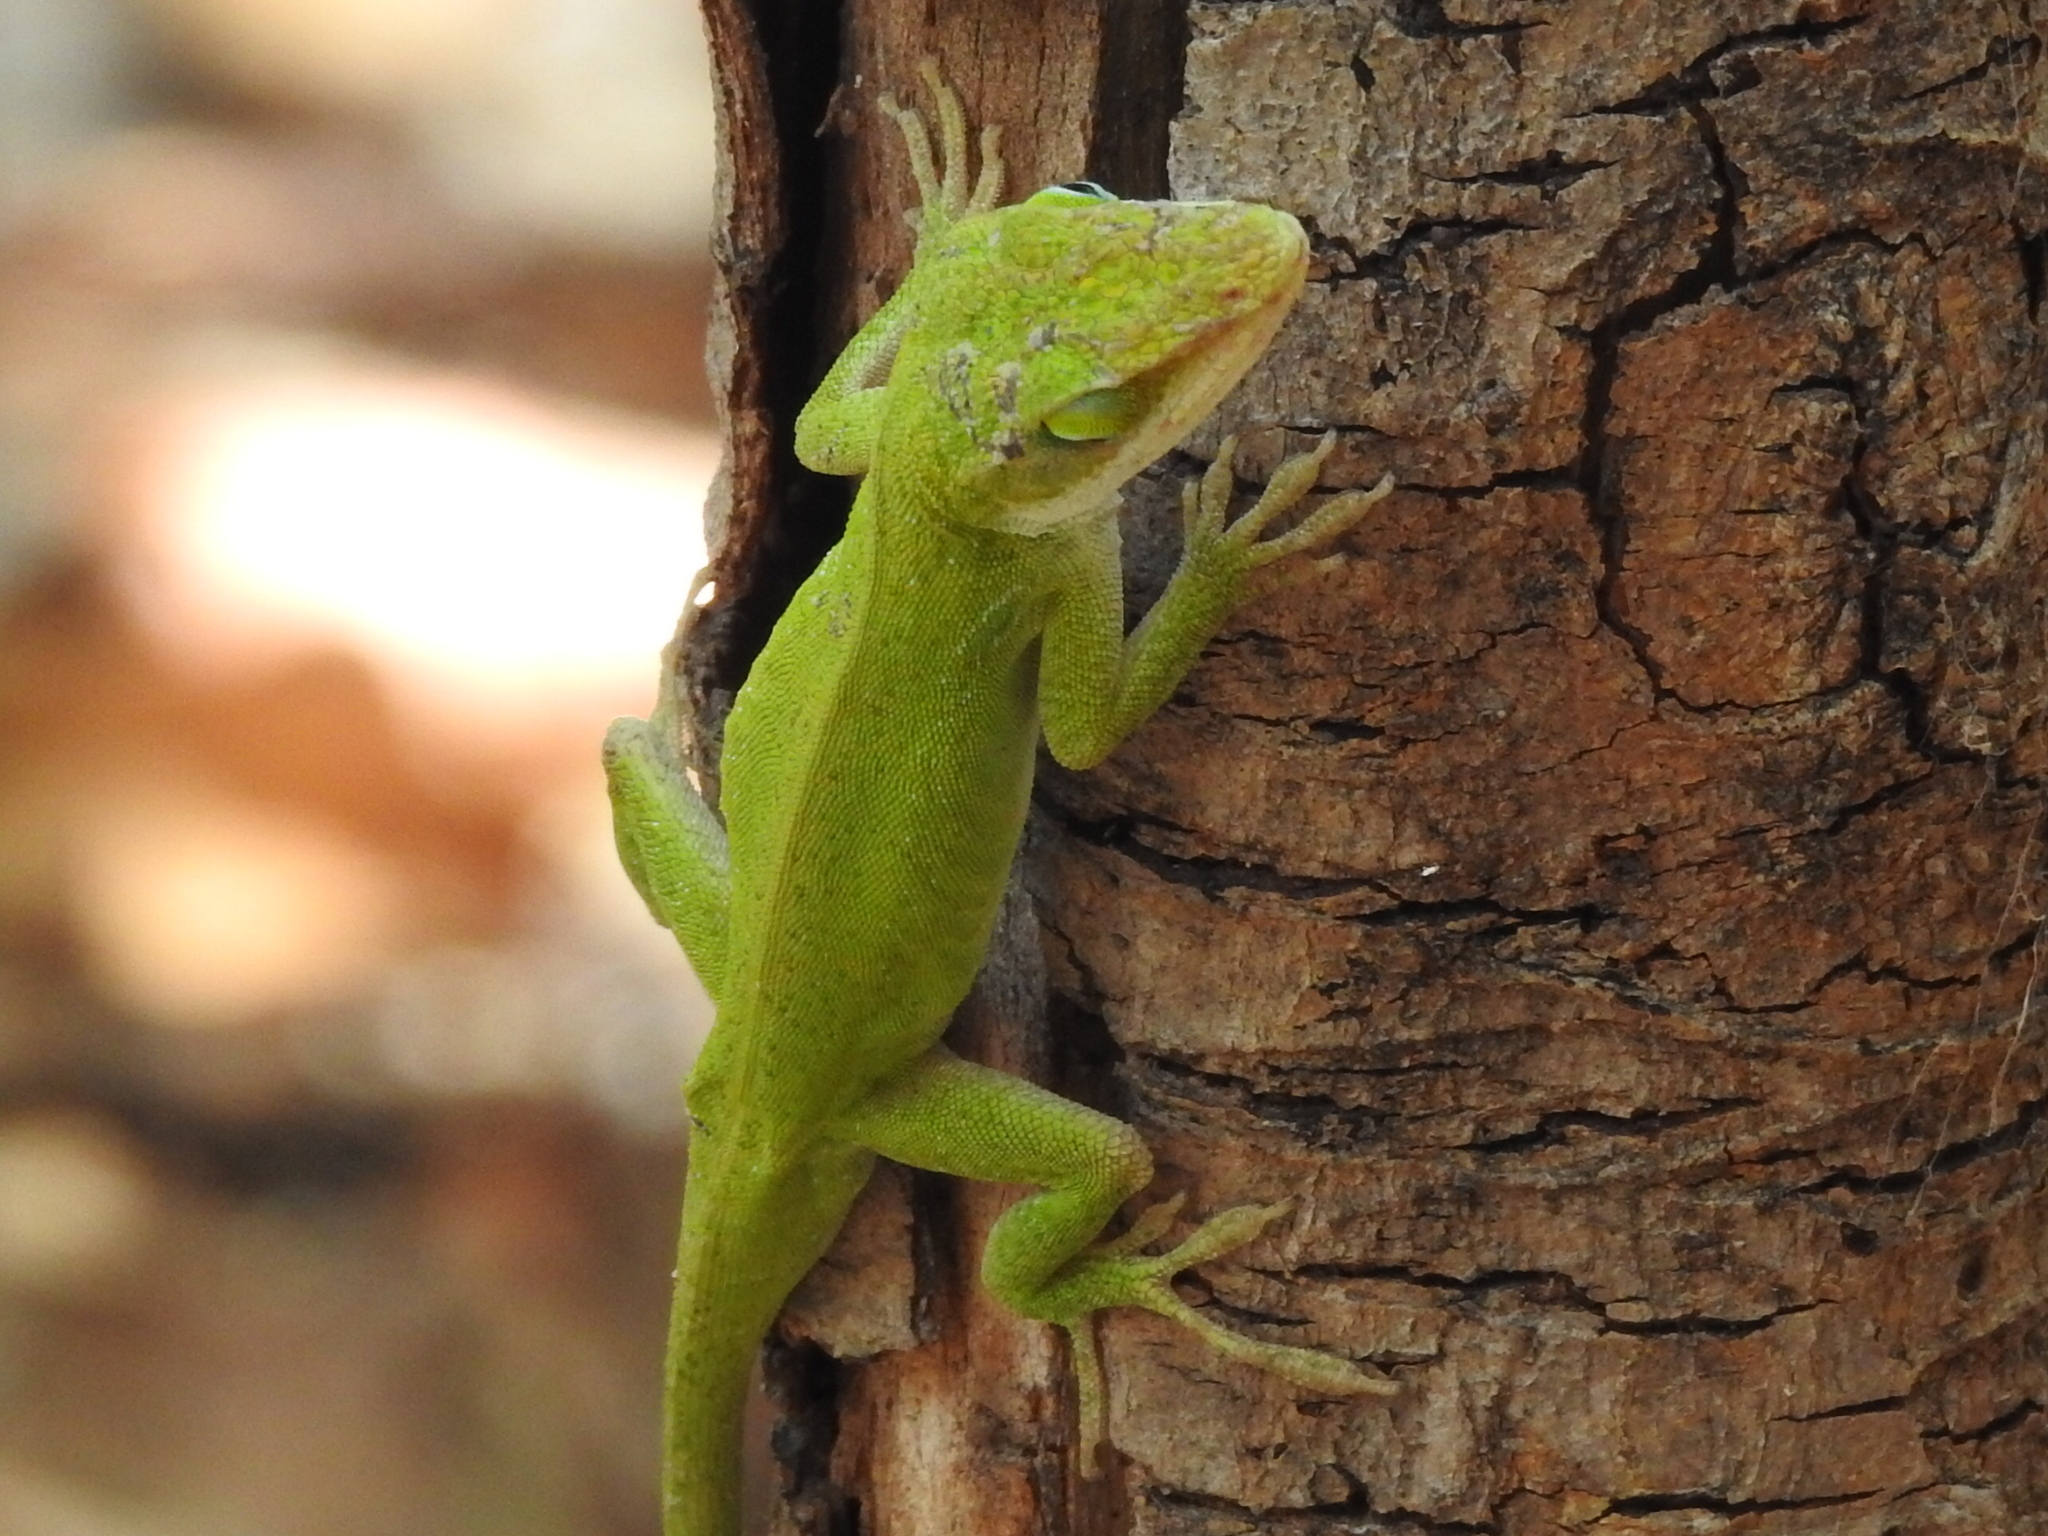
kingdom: Animalia
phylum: Chordata
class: Squamata
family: Dactyloidae
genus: Anolis
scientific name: Anolis carolinensis
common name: Green anole
